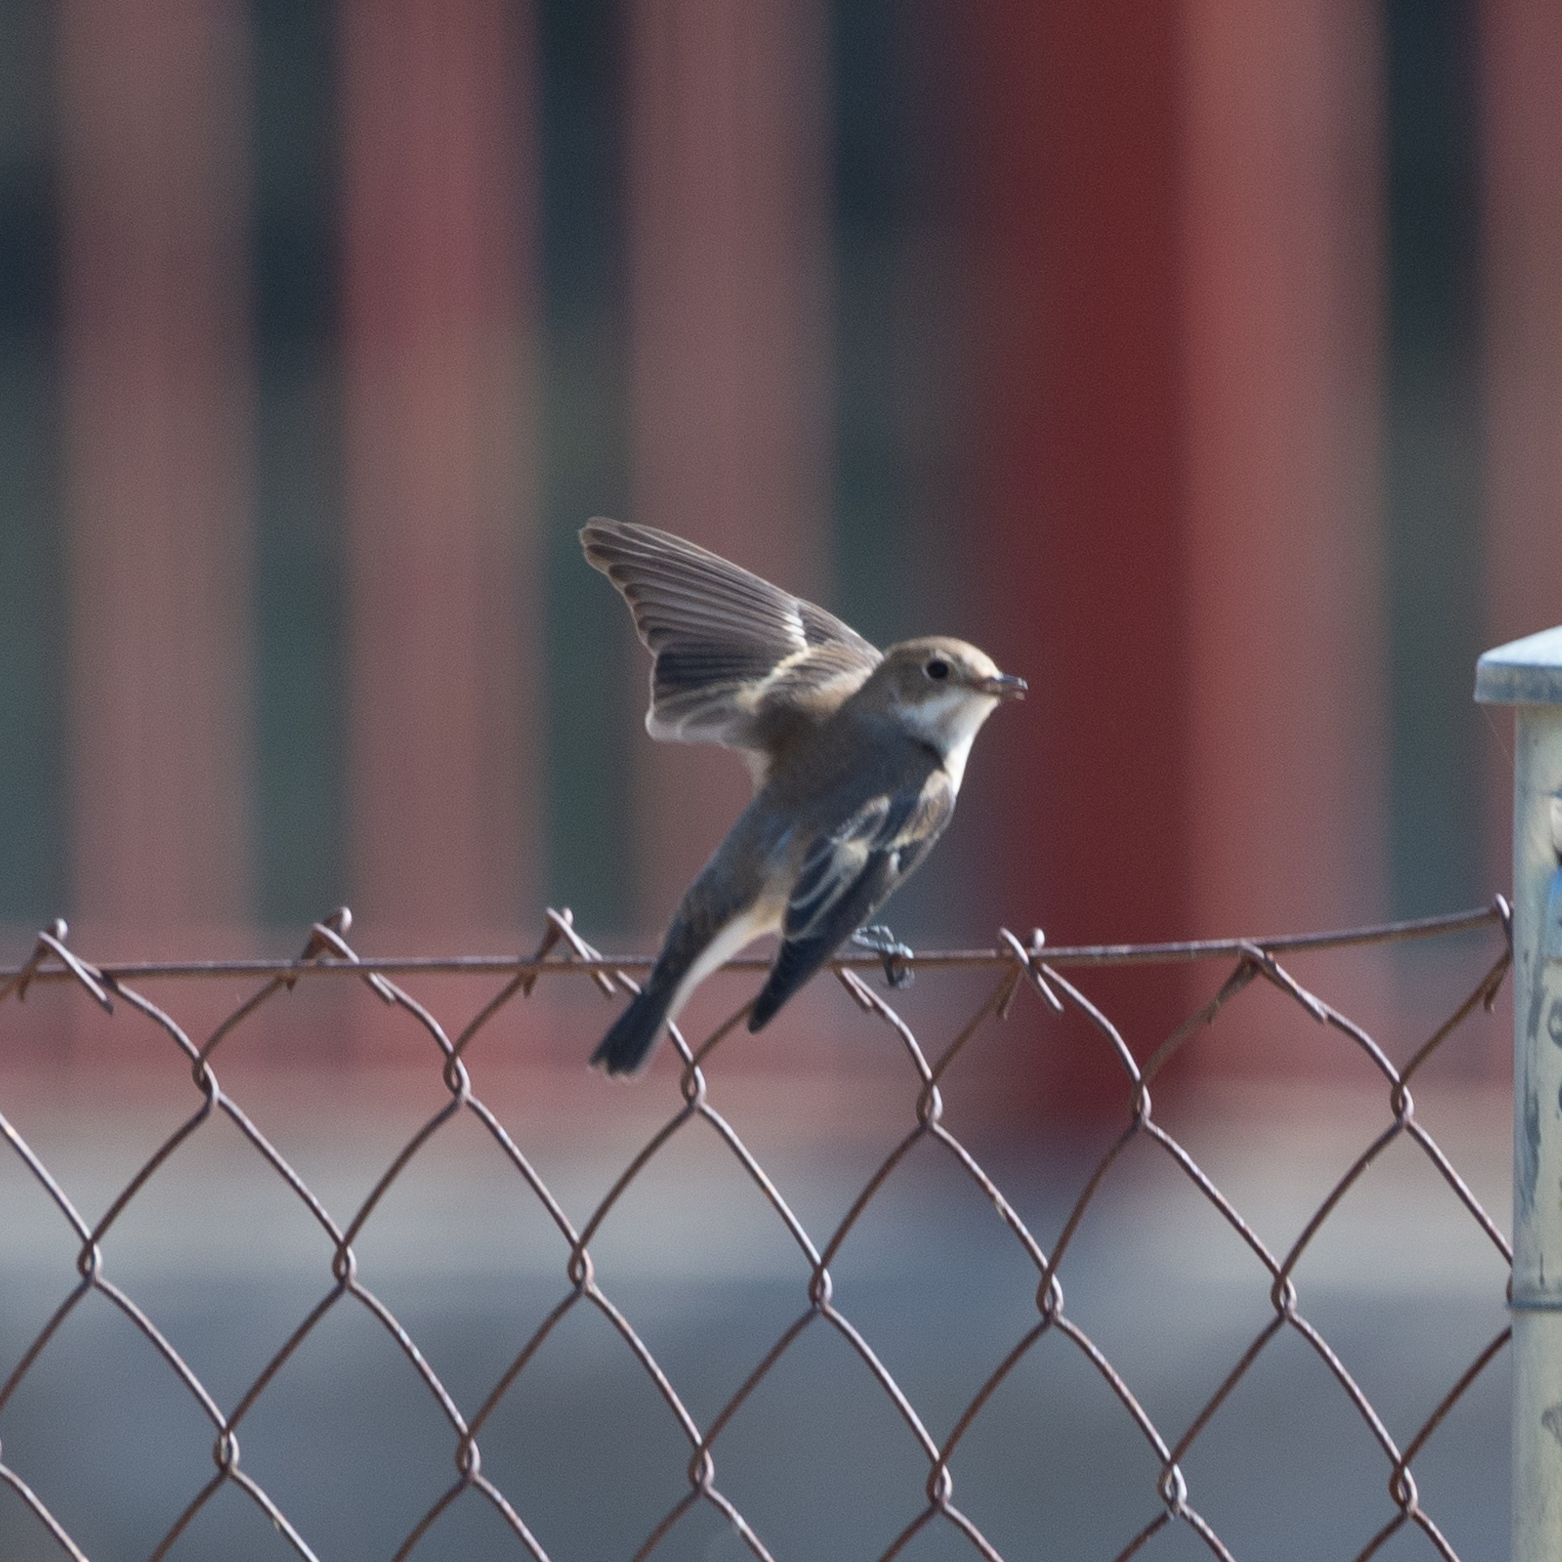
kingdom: Animalia
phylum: Chordata
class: Aves
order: Passeriformes
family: Muscicapidae
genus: Ficedula
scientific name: Ficedula hypoleuca
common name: European pied flycatcher
